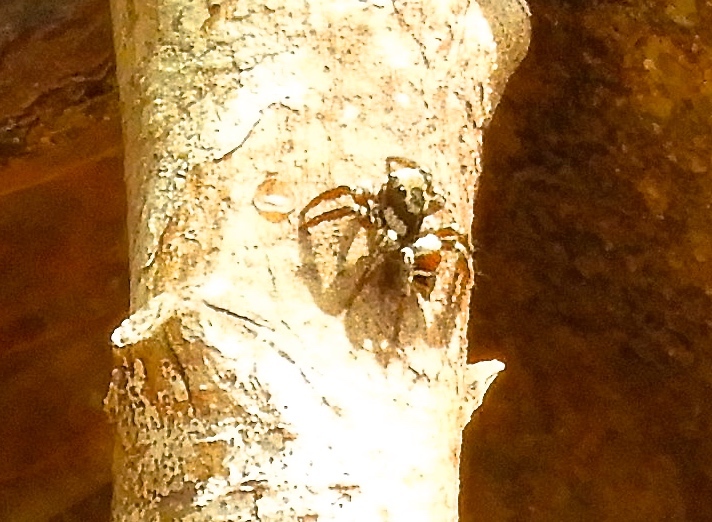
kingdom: Animalia
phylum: Arthropoda
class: Arachnida
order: Araneae
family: Salticidae
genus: Corythalia
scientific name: Corythalia
